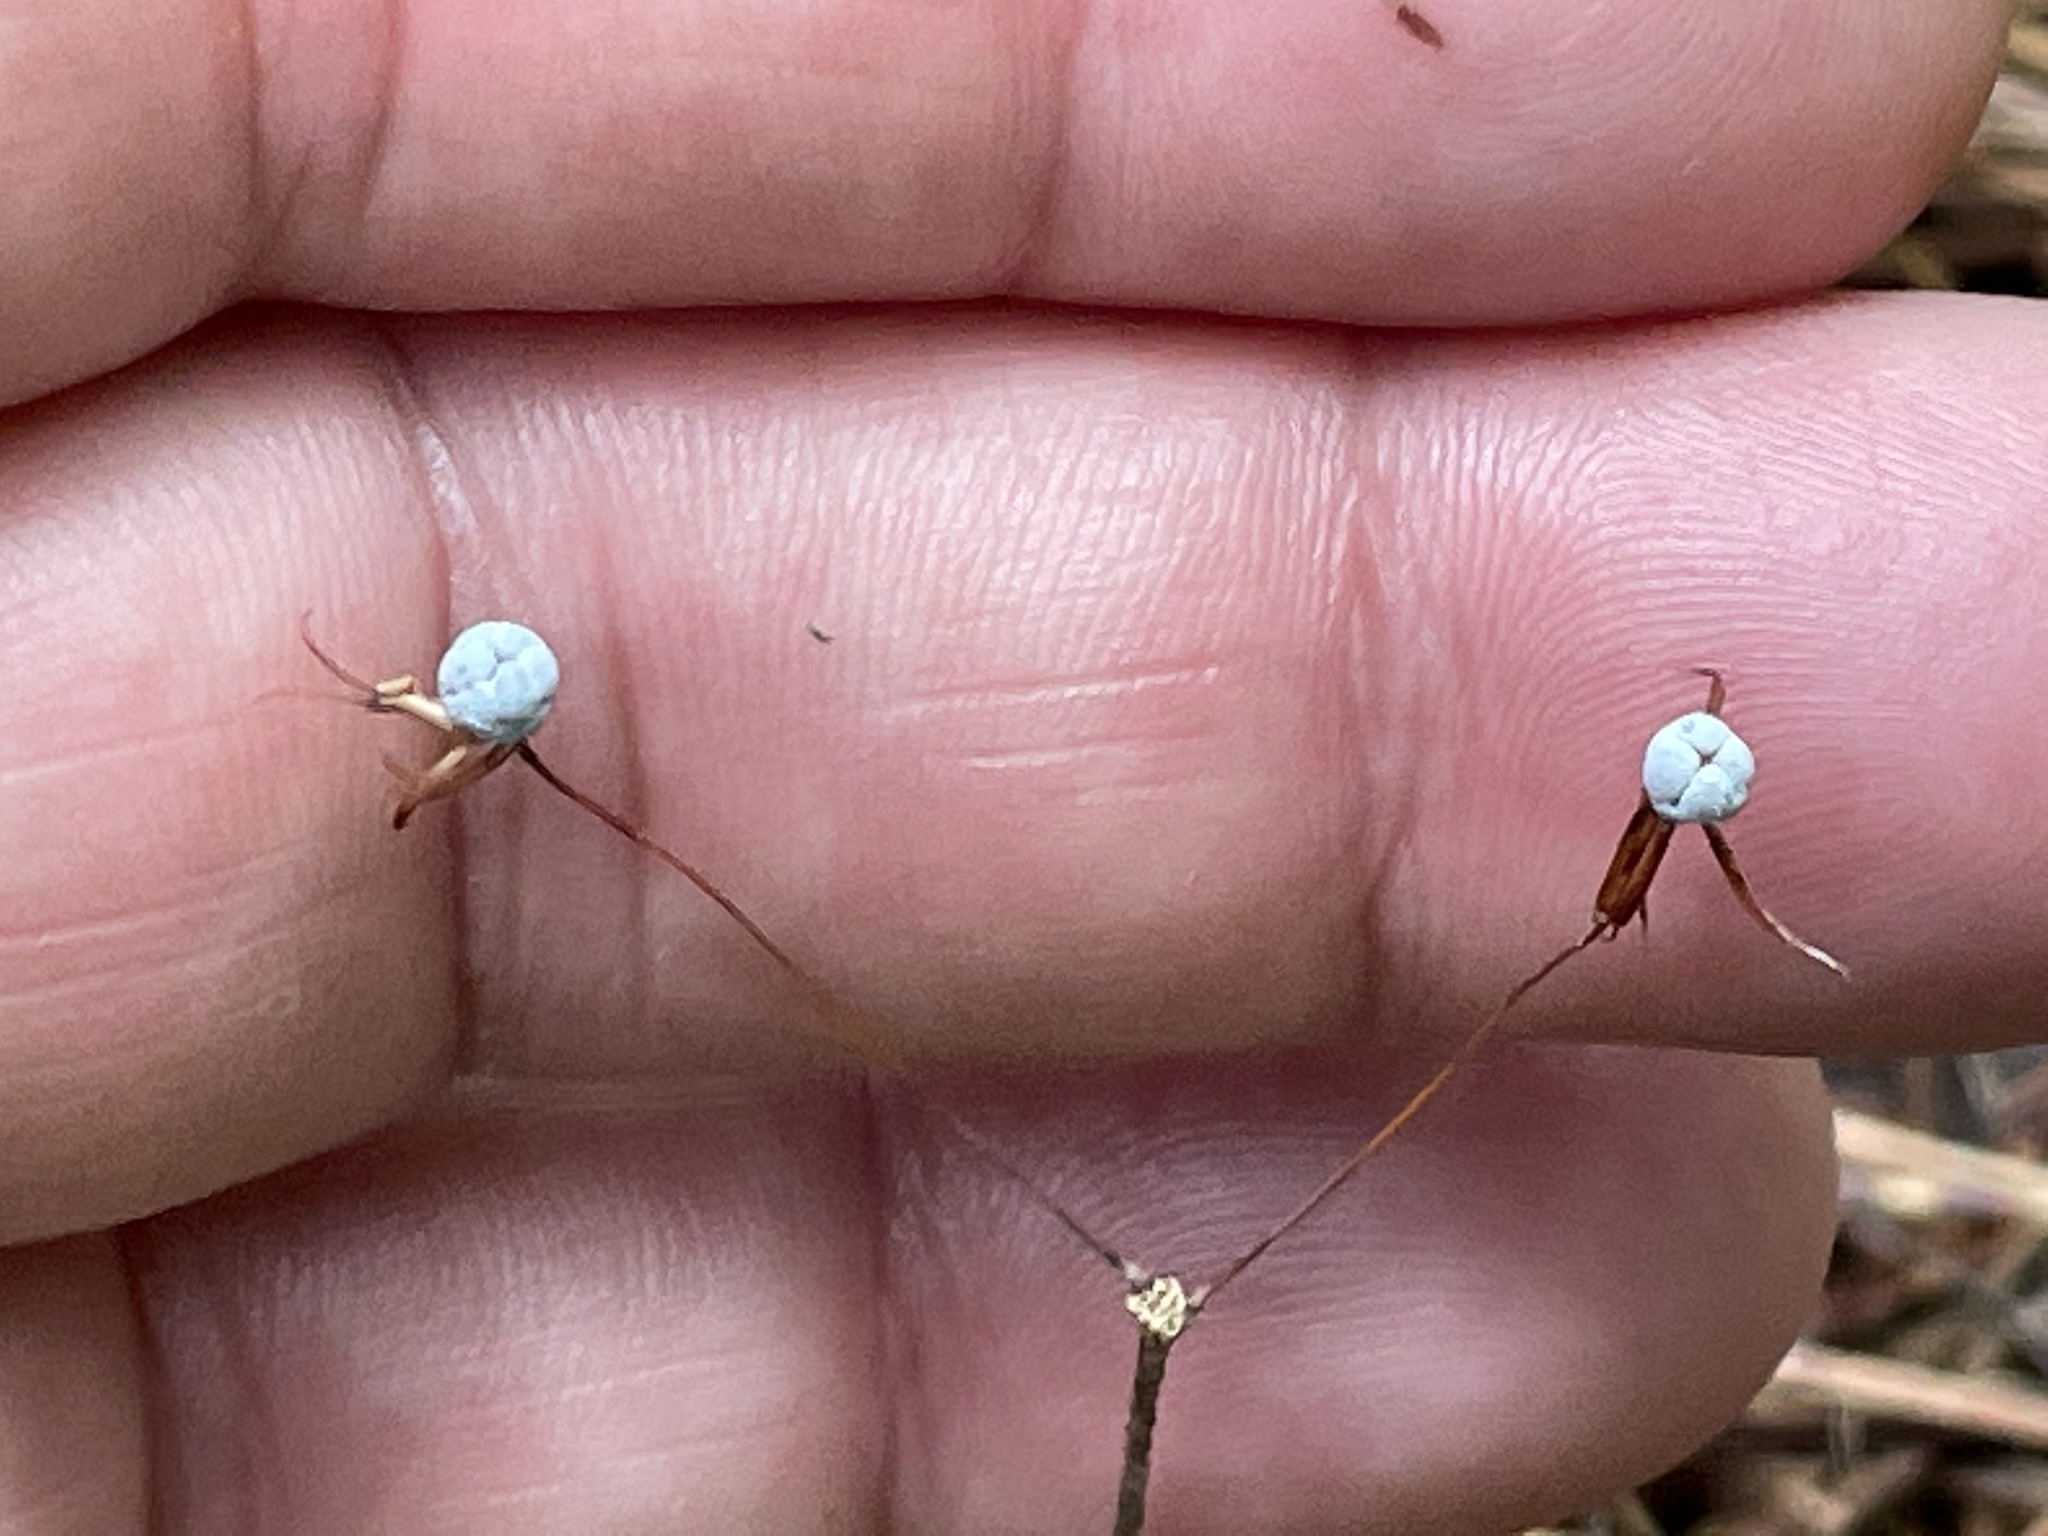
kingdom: Plantae
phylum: Tracheophyta
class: Magnoliopsida
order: Ericales
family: Primulaceae
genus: Lysimachia
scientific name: Lysimachia borealis
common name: American starflower
